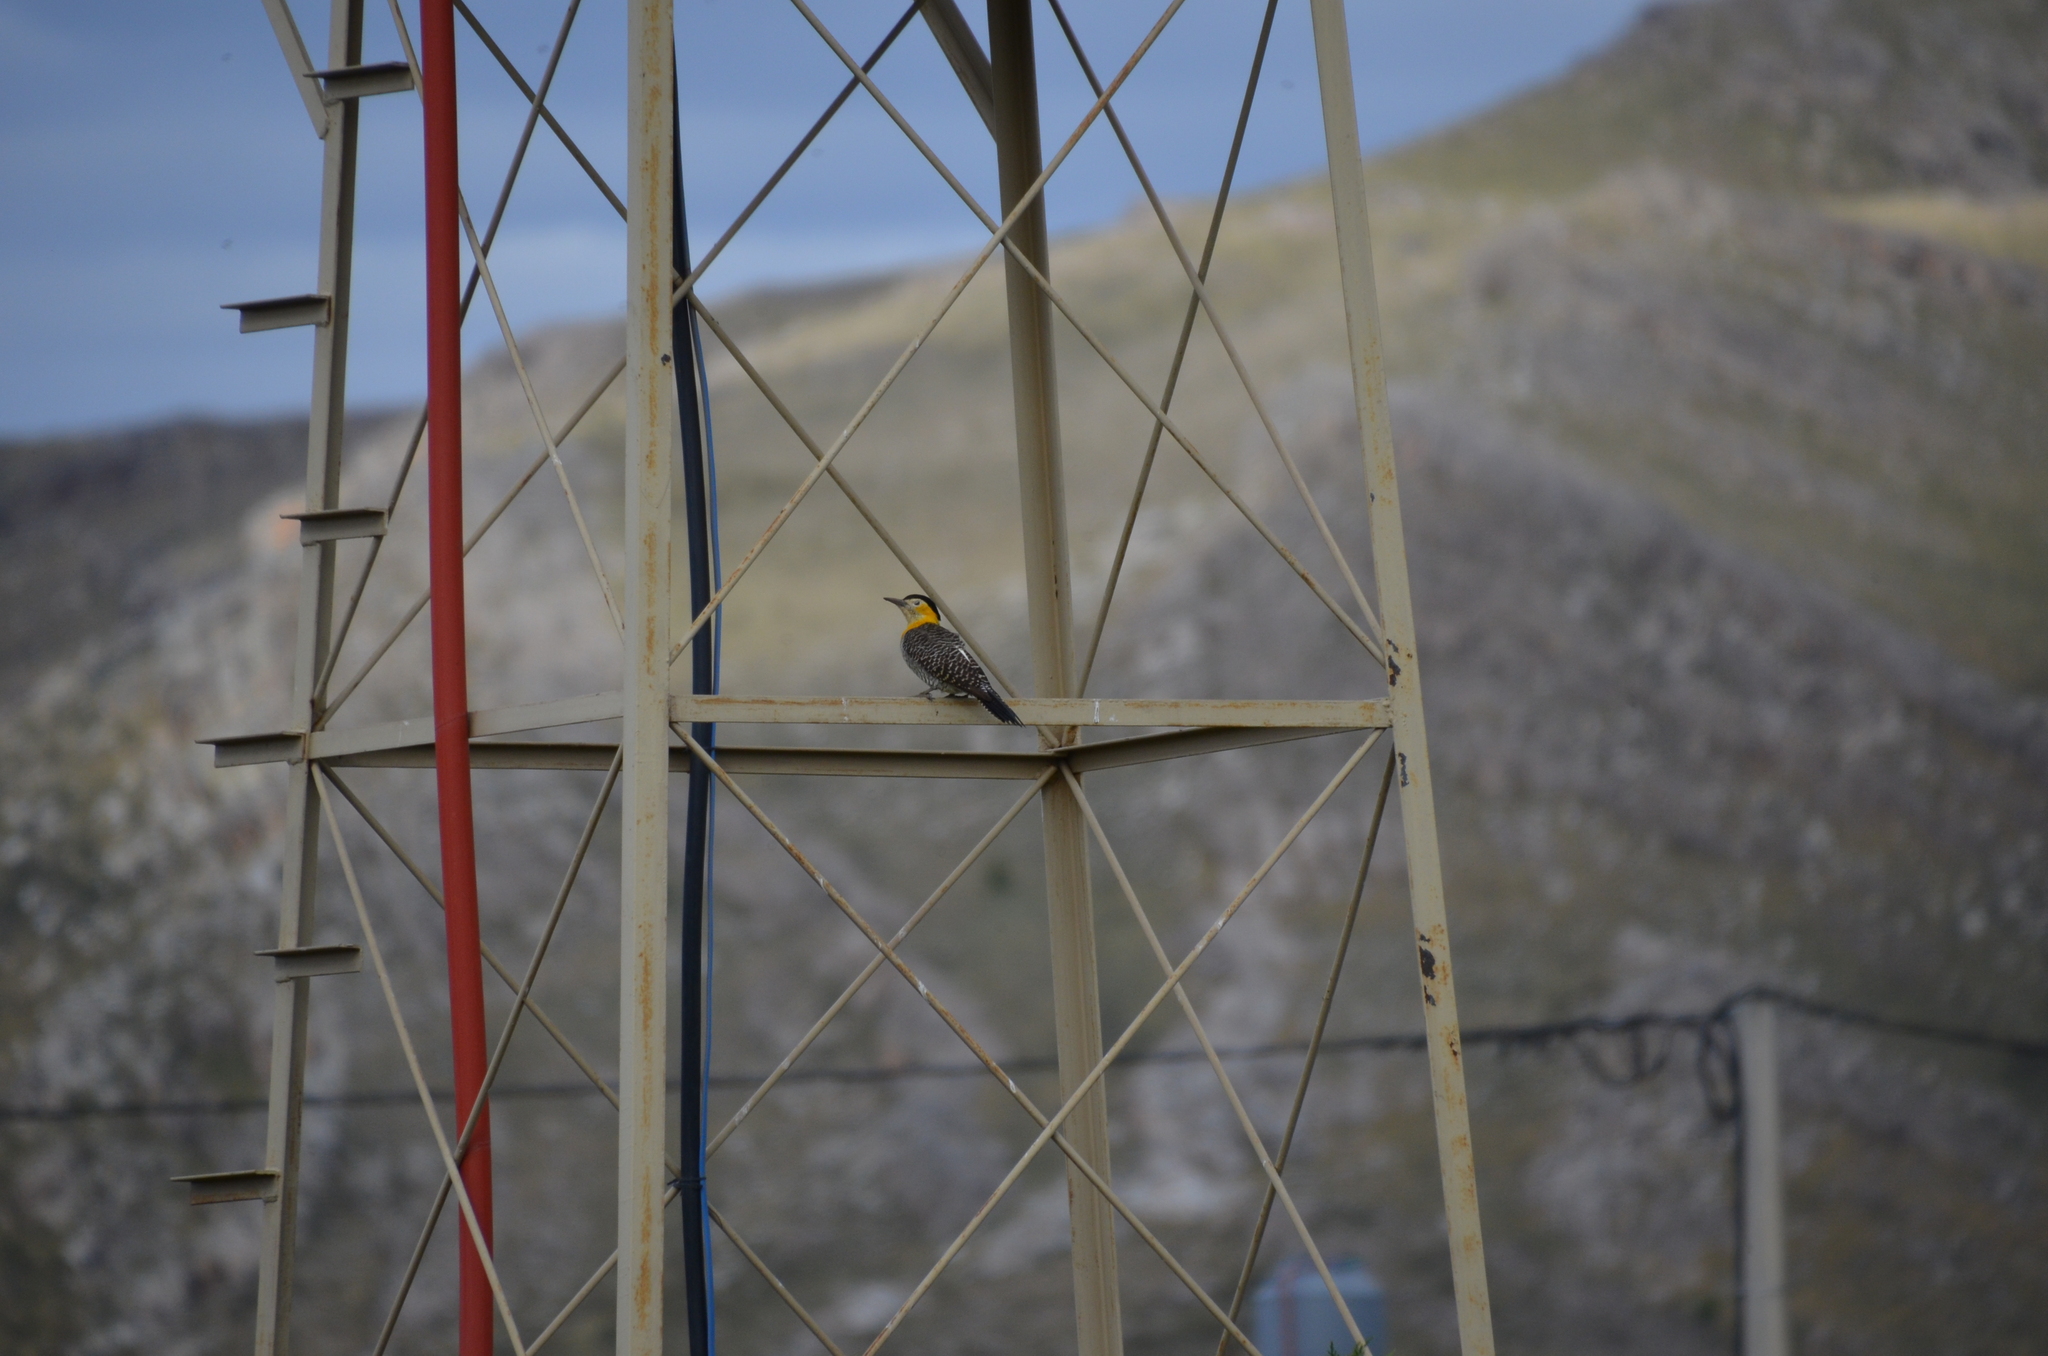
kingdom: Animalia
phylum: Chordata
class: Aves
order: Piciformes
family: Picidae
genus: Colaptes
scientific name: Colaptes campestris
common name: Campo flicker
